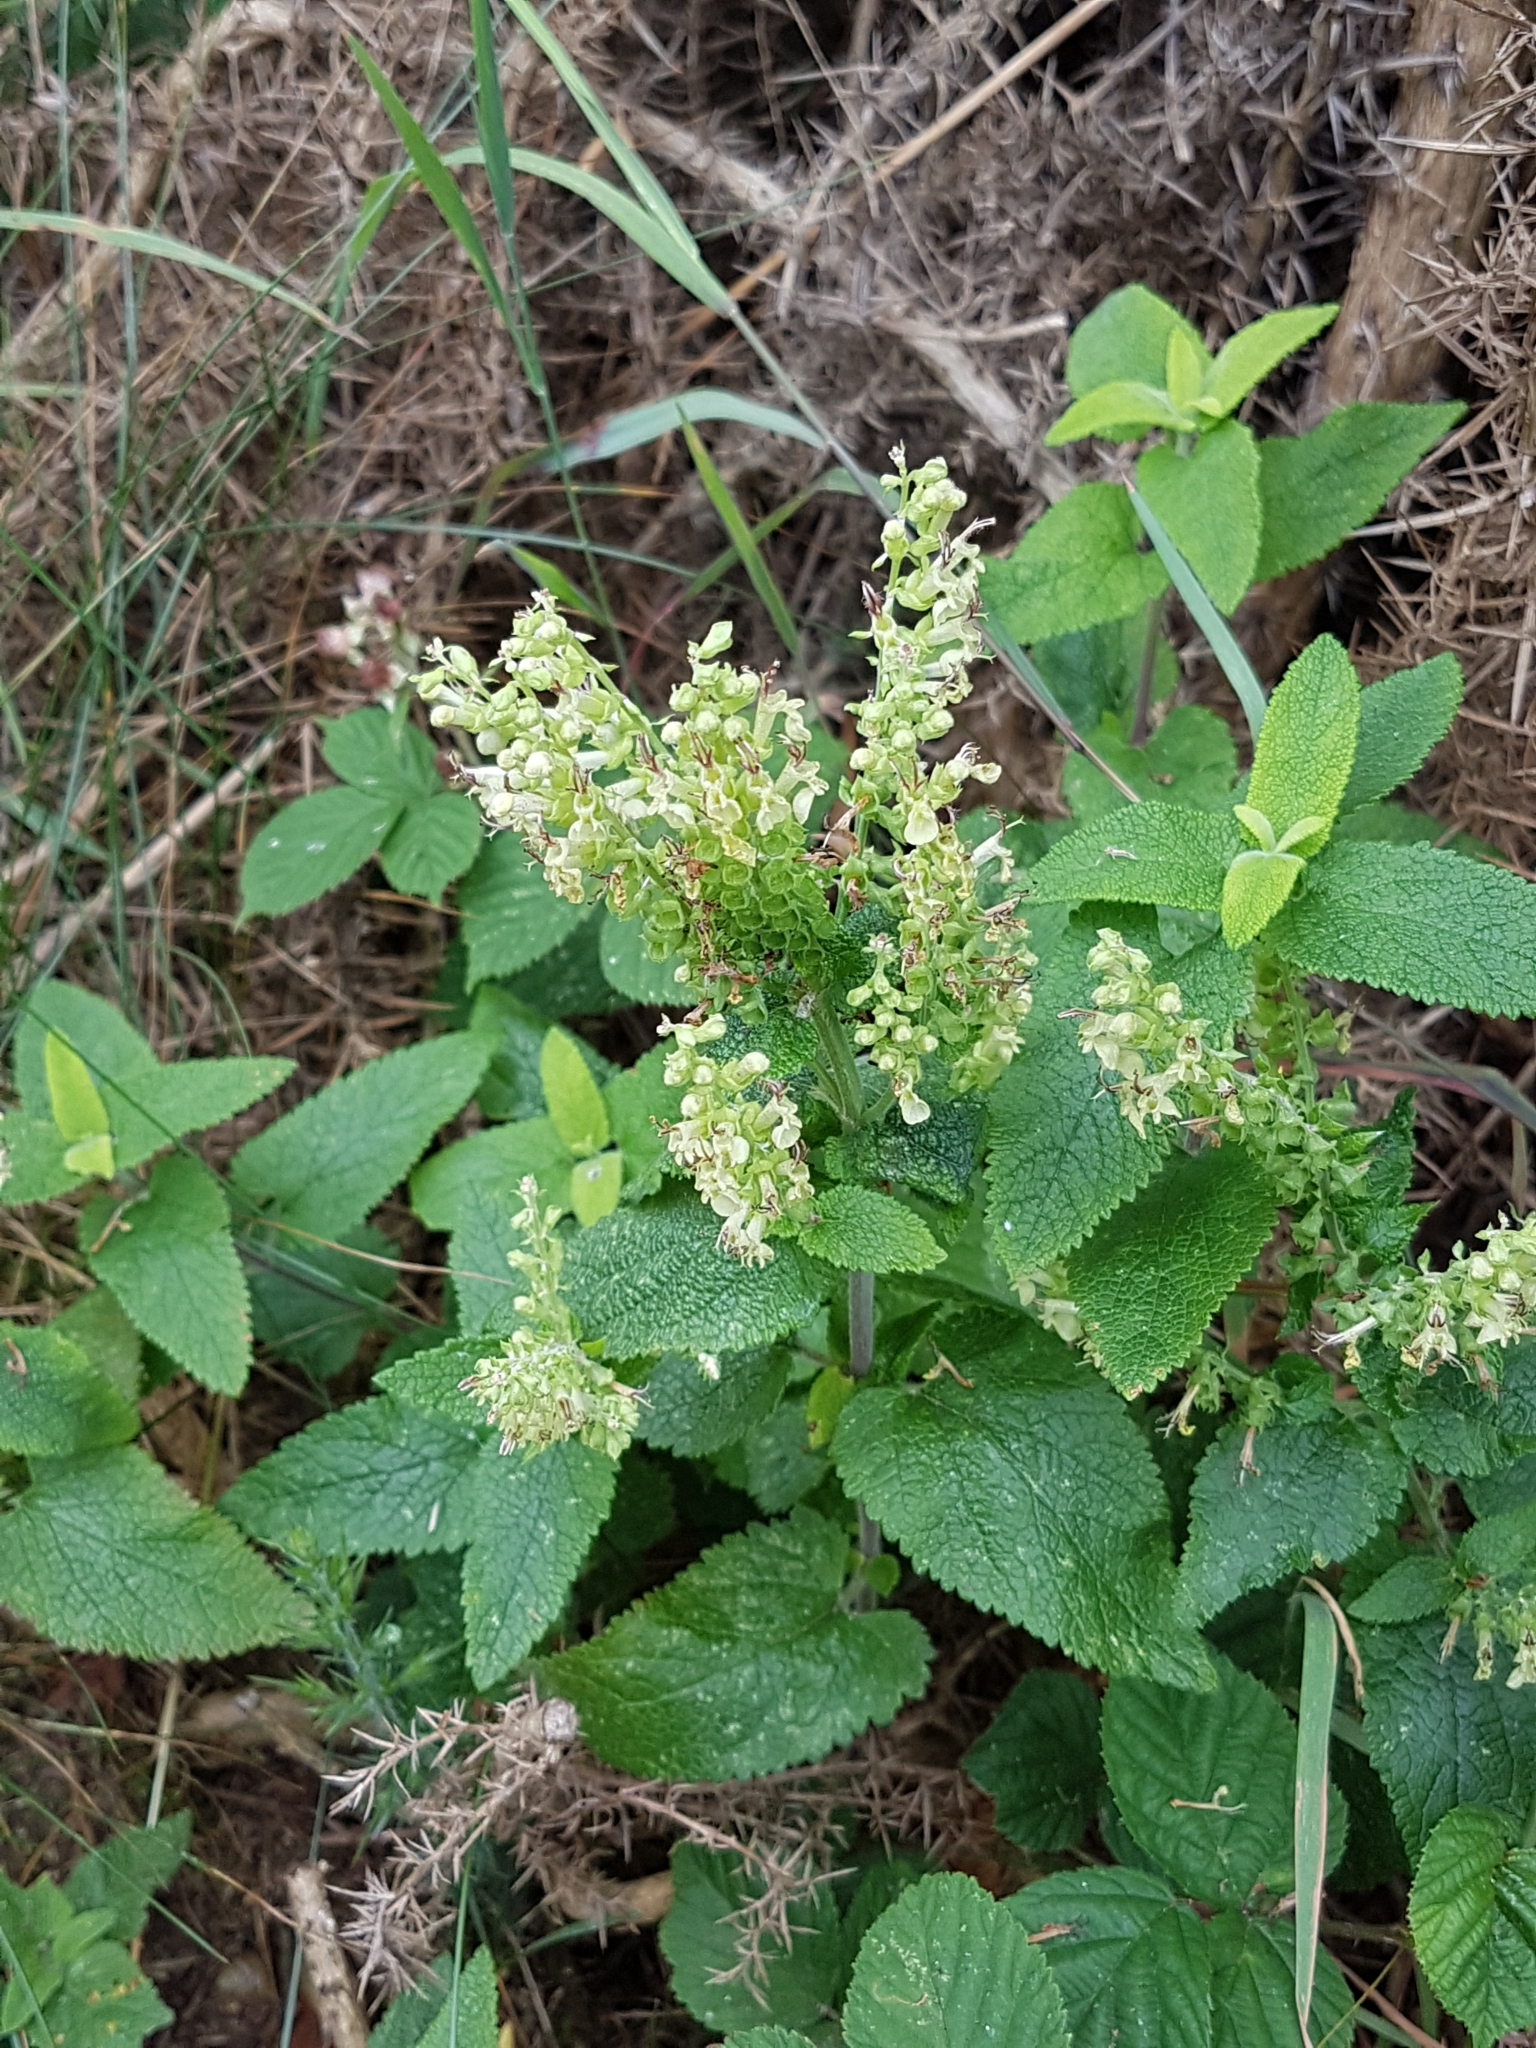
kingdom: Plantae
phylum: Tracheophyta
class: Magnoliopsida
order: Lamiales
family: Lamiaceae
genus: Teucrium
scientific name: Teucrium scorodonia
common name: Woodland germander
